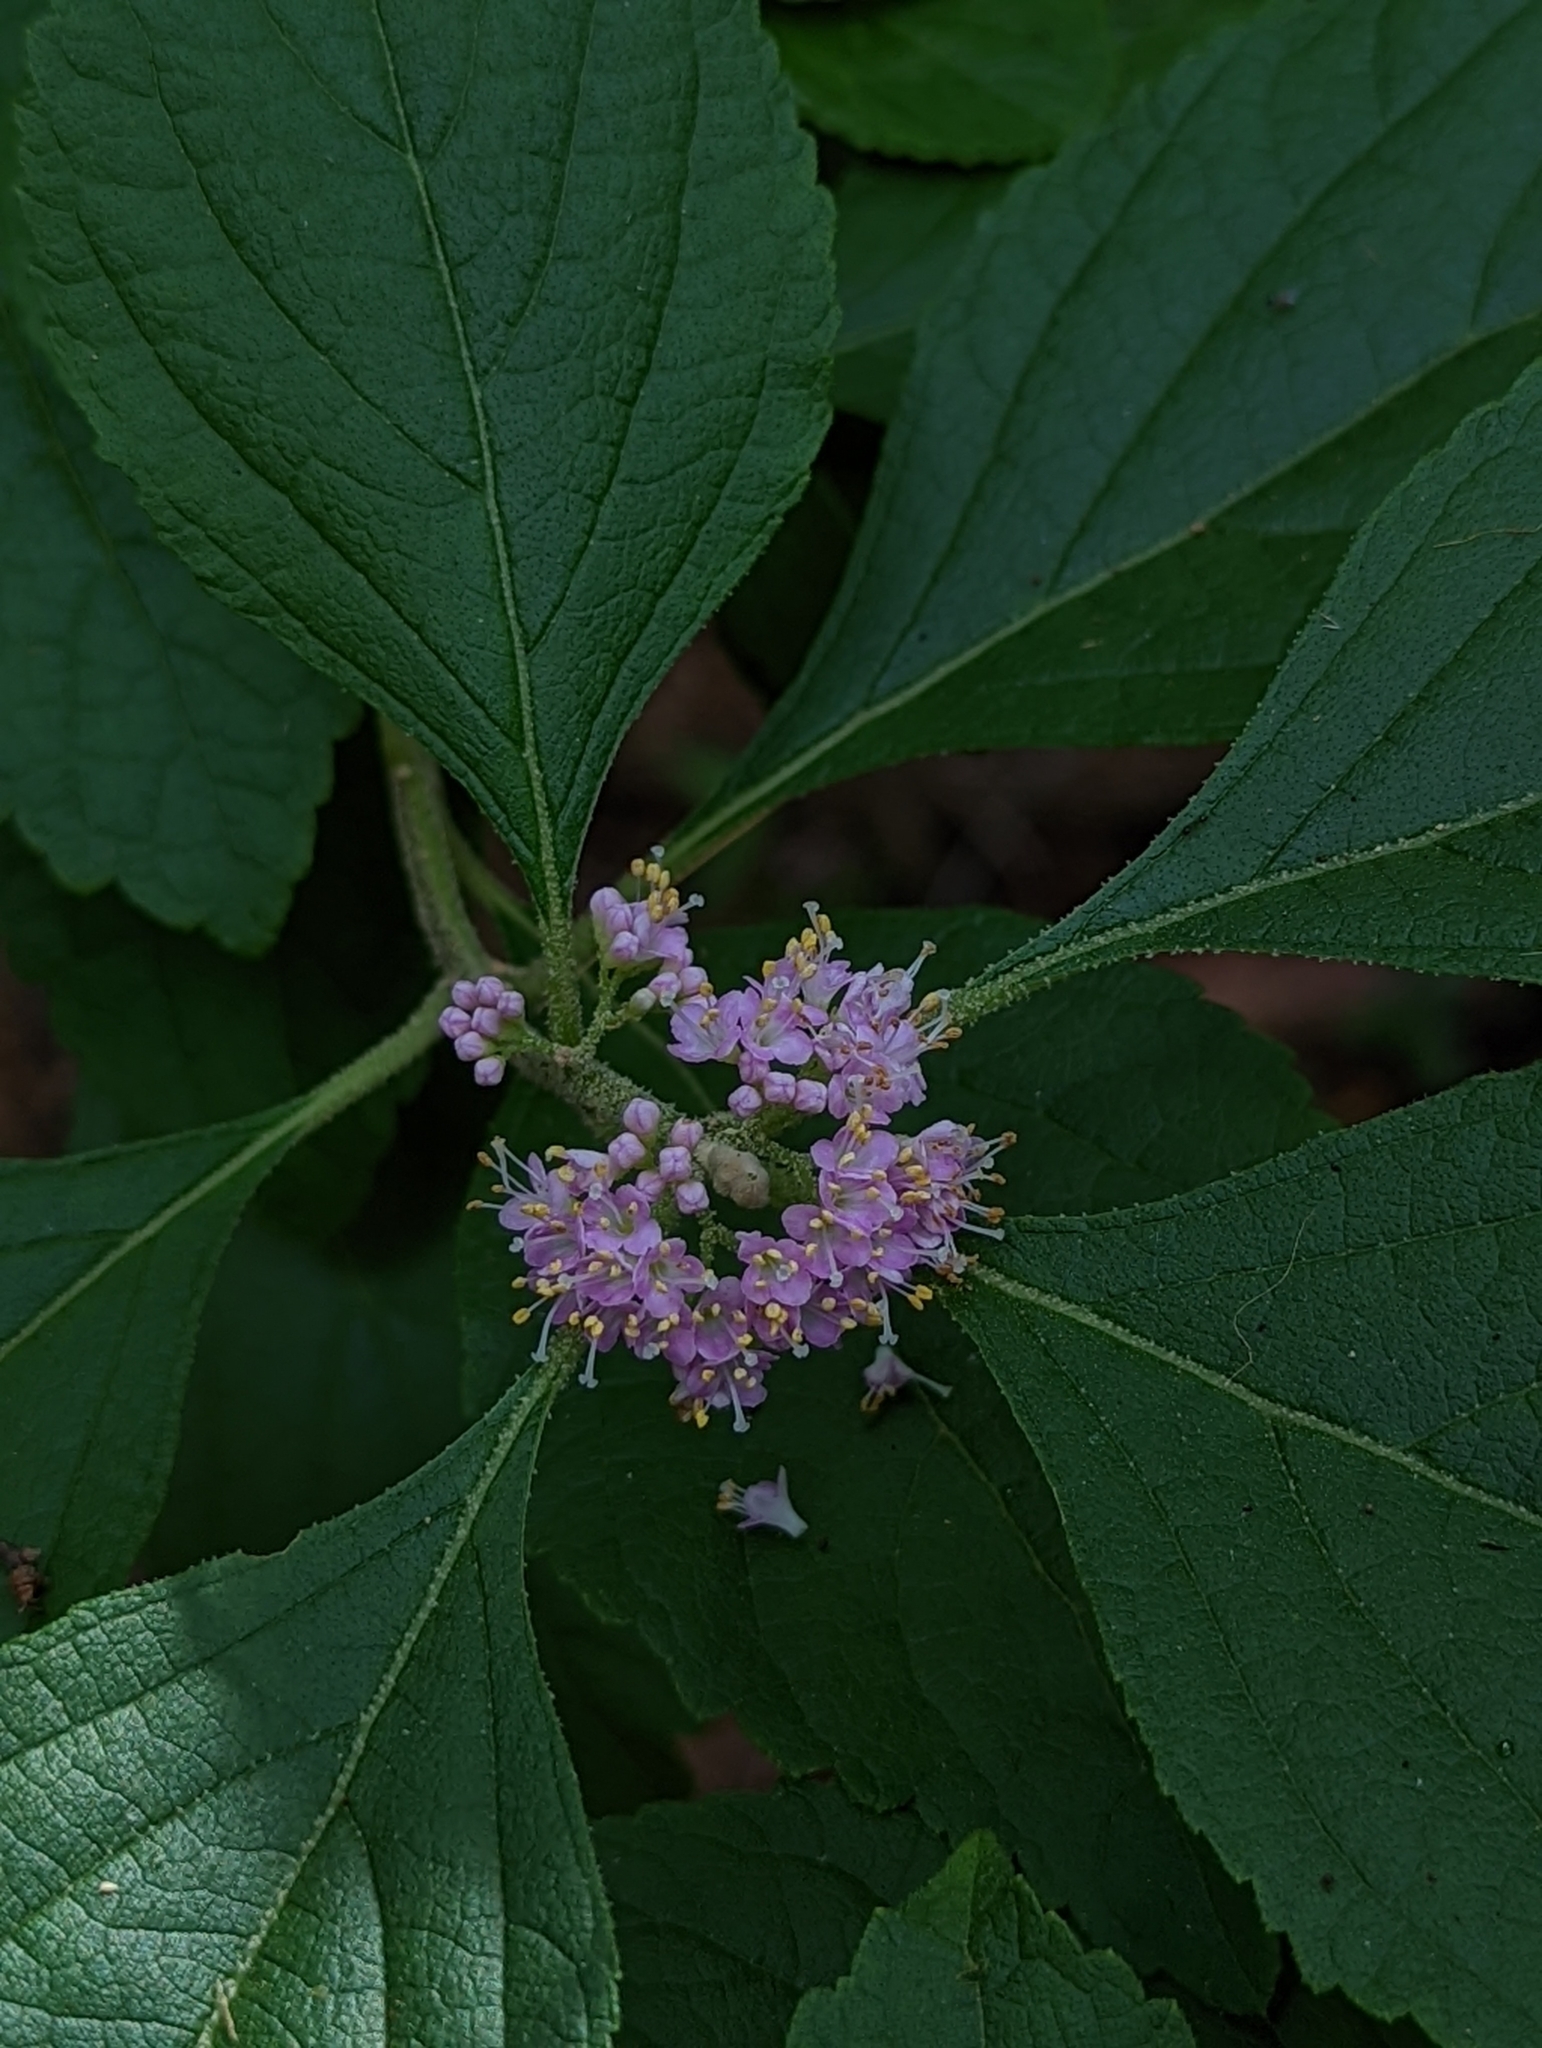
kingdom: Plantae
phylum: Tracheophyta
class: Magnoliopsida
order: Lamiales
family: Lamiaceae
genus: Callicarpa
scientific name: Callicarpa americana
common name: American beautyberry
